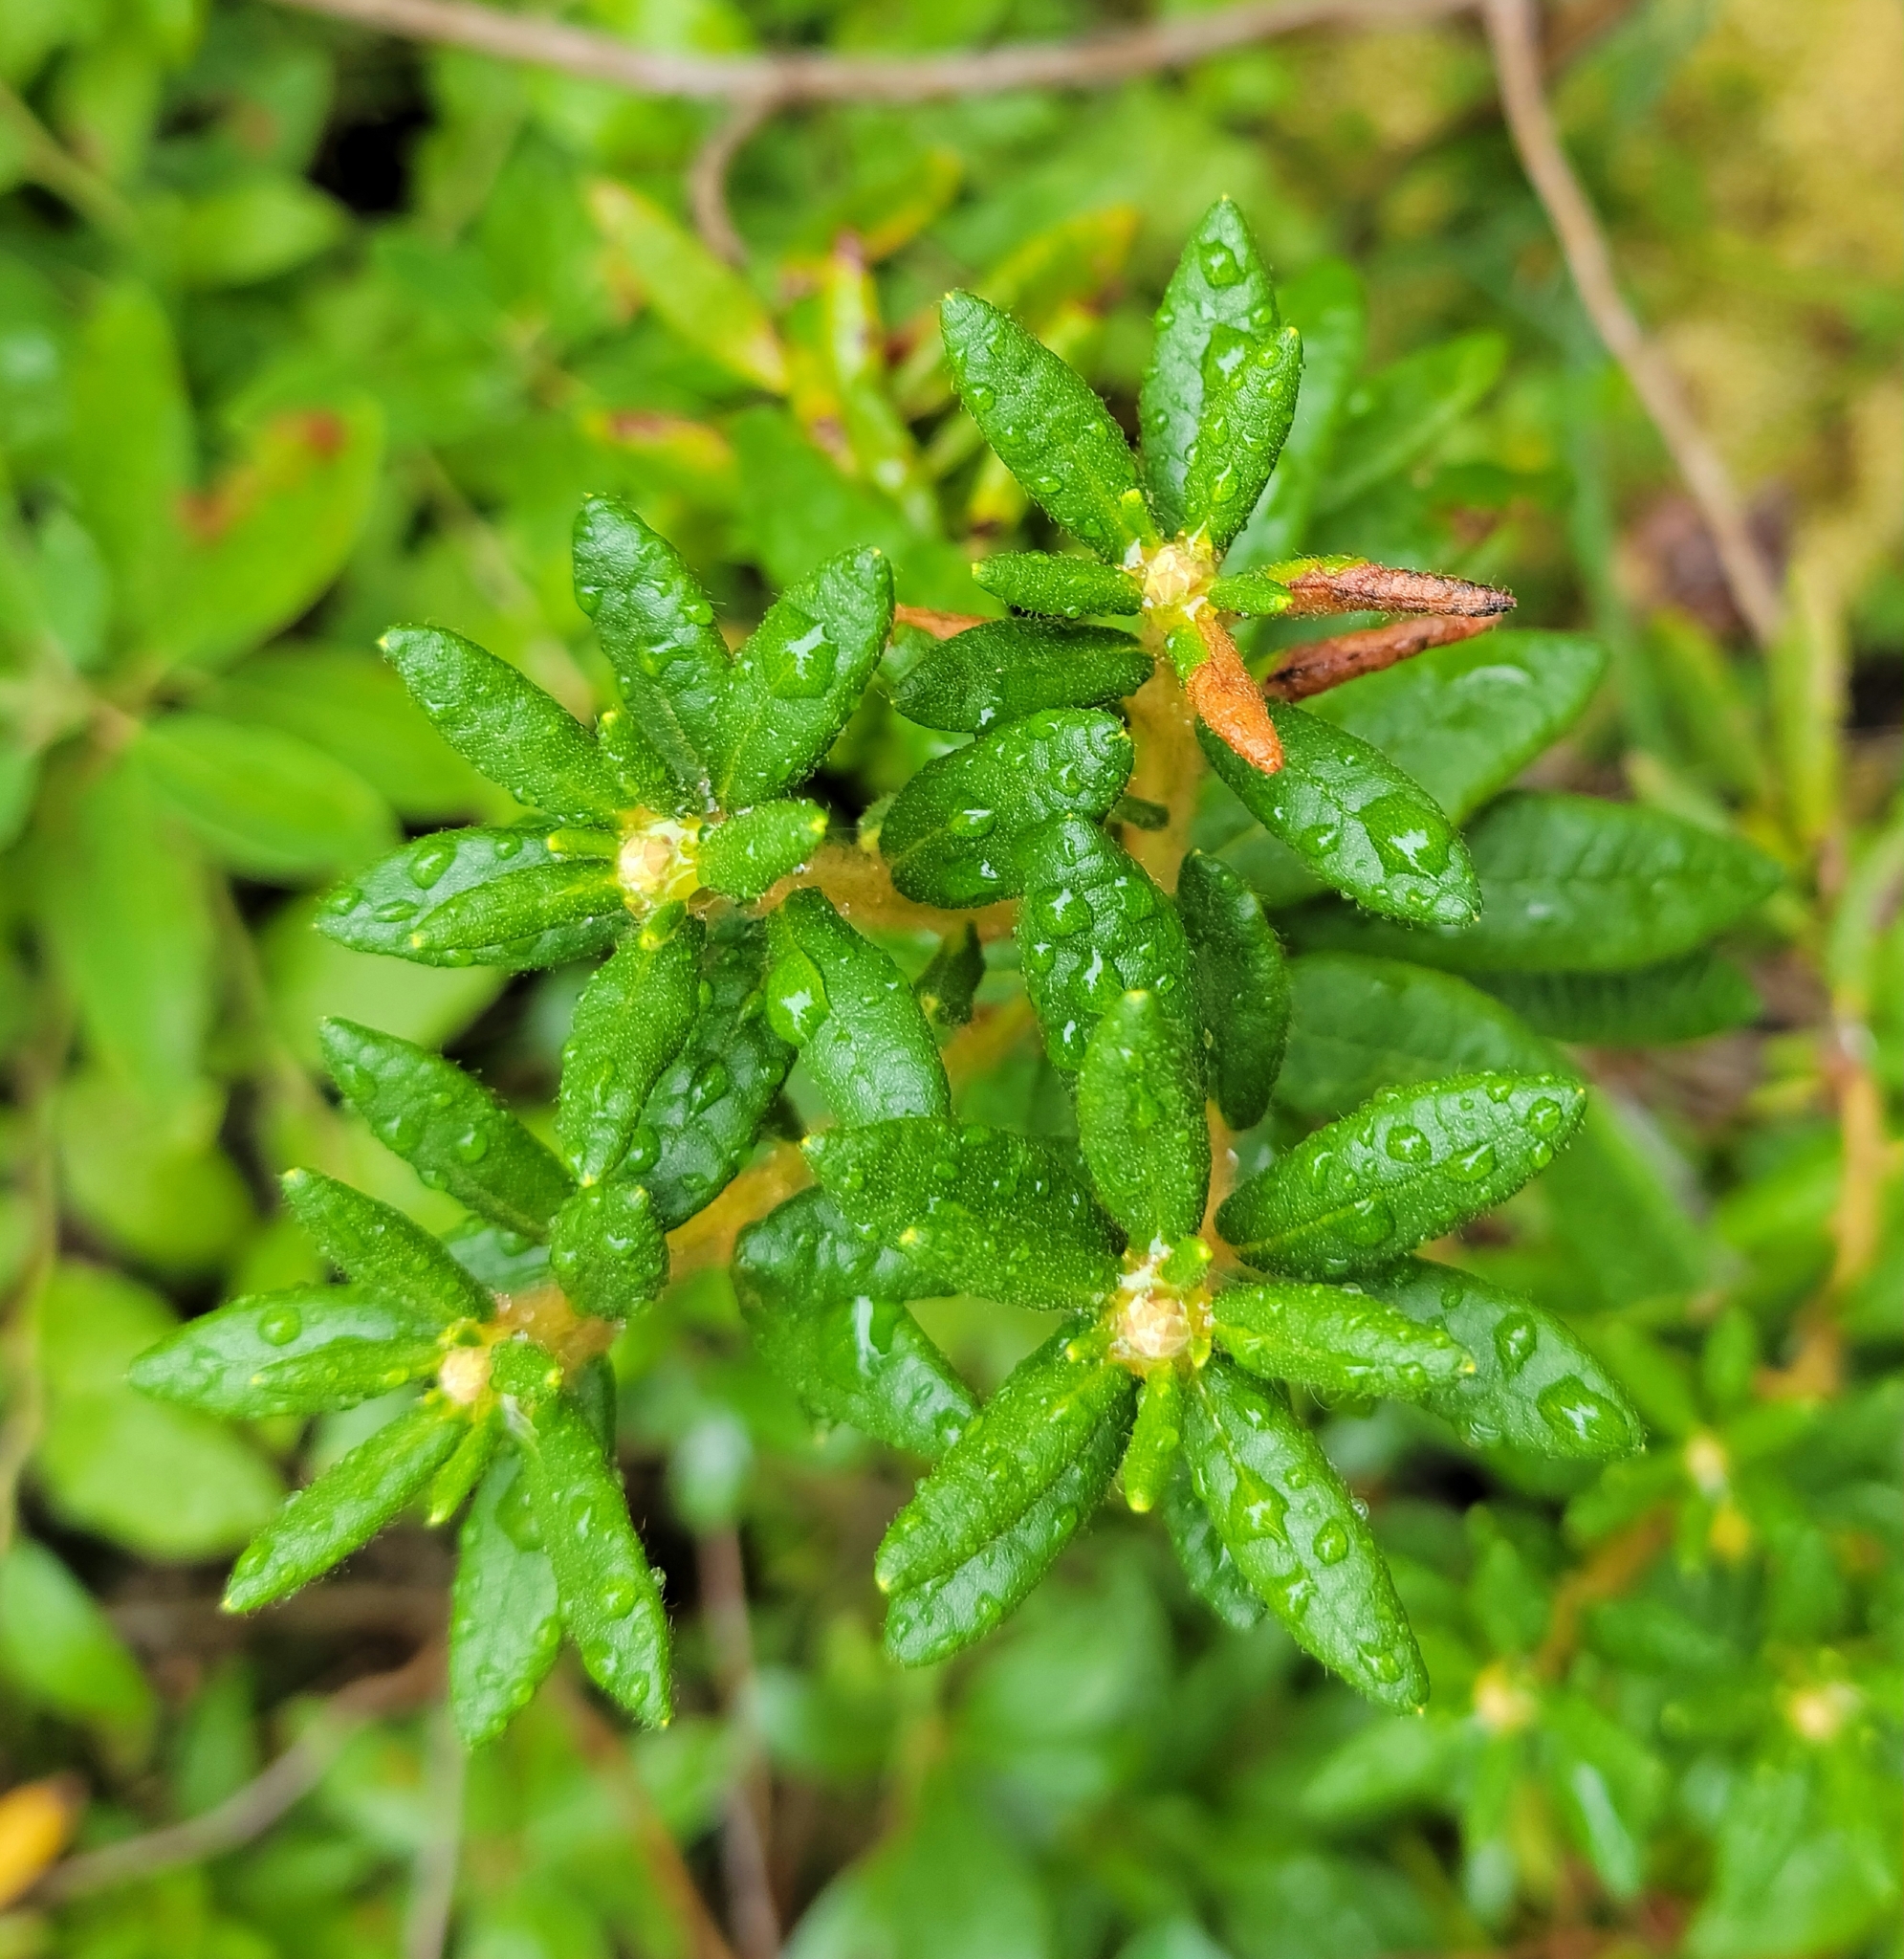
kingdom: Plantae
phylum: Tracheophyta
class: Magnoliopsida
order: Ericales
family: Ericaceae
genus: Rhododendron
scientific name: Rhododendron groenlandicum
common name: Bog labrador tea
